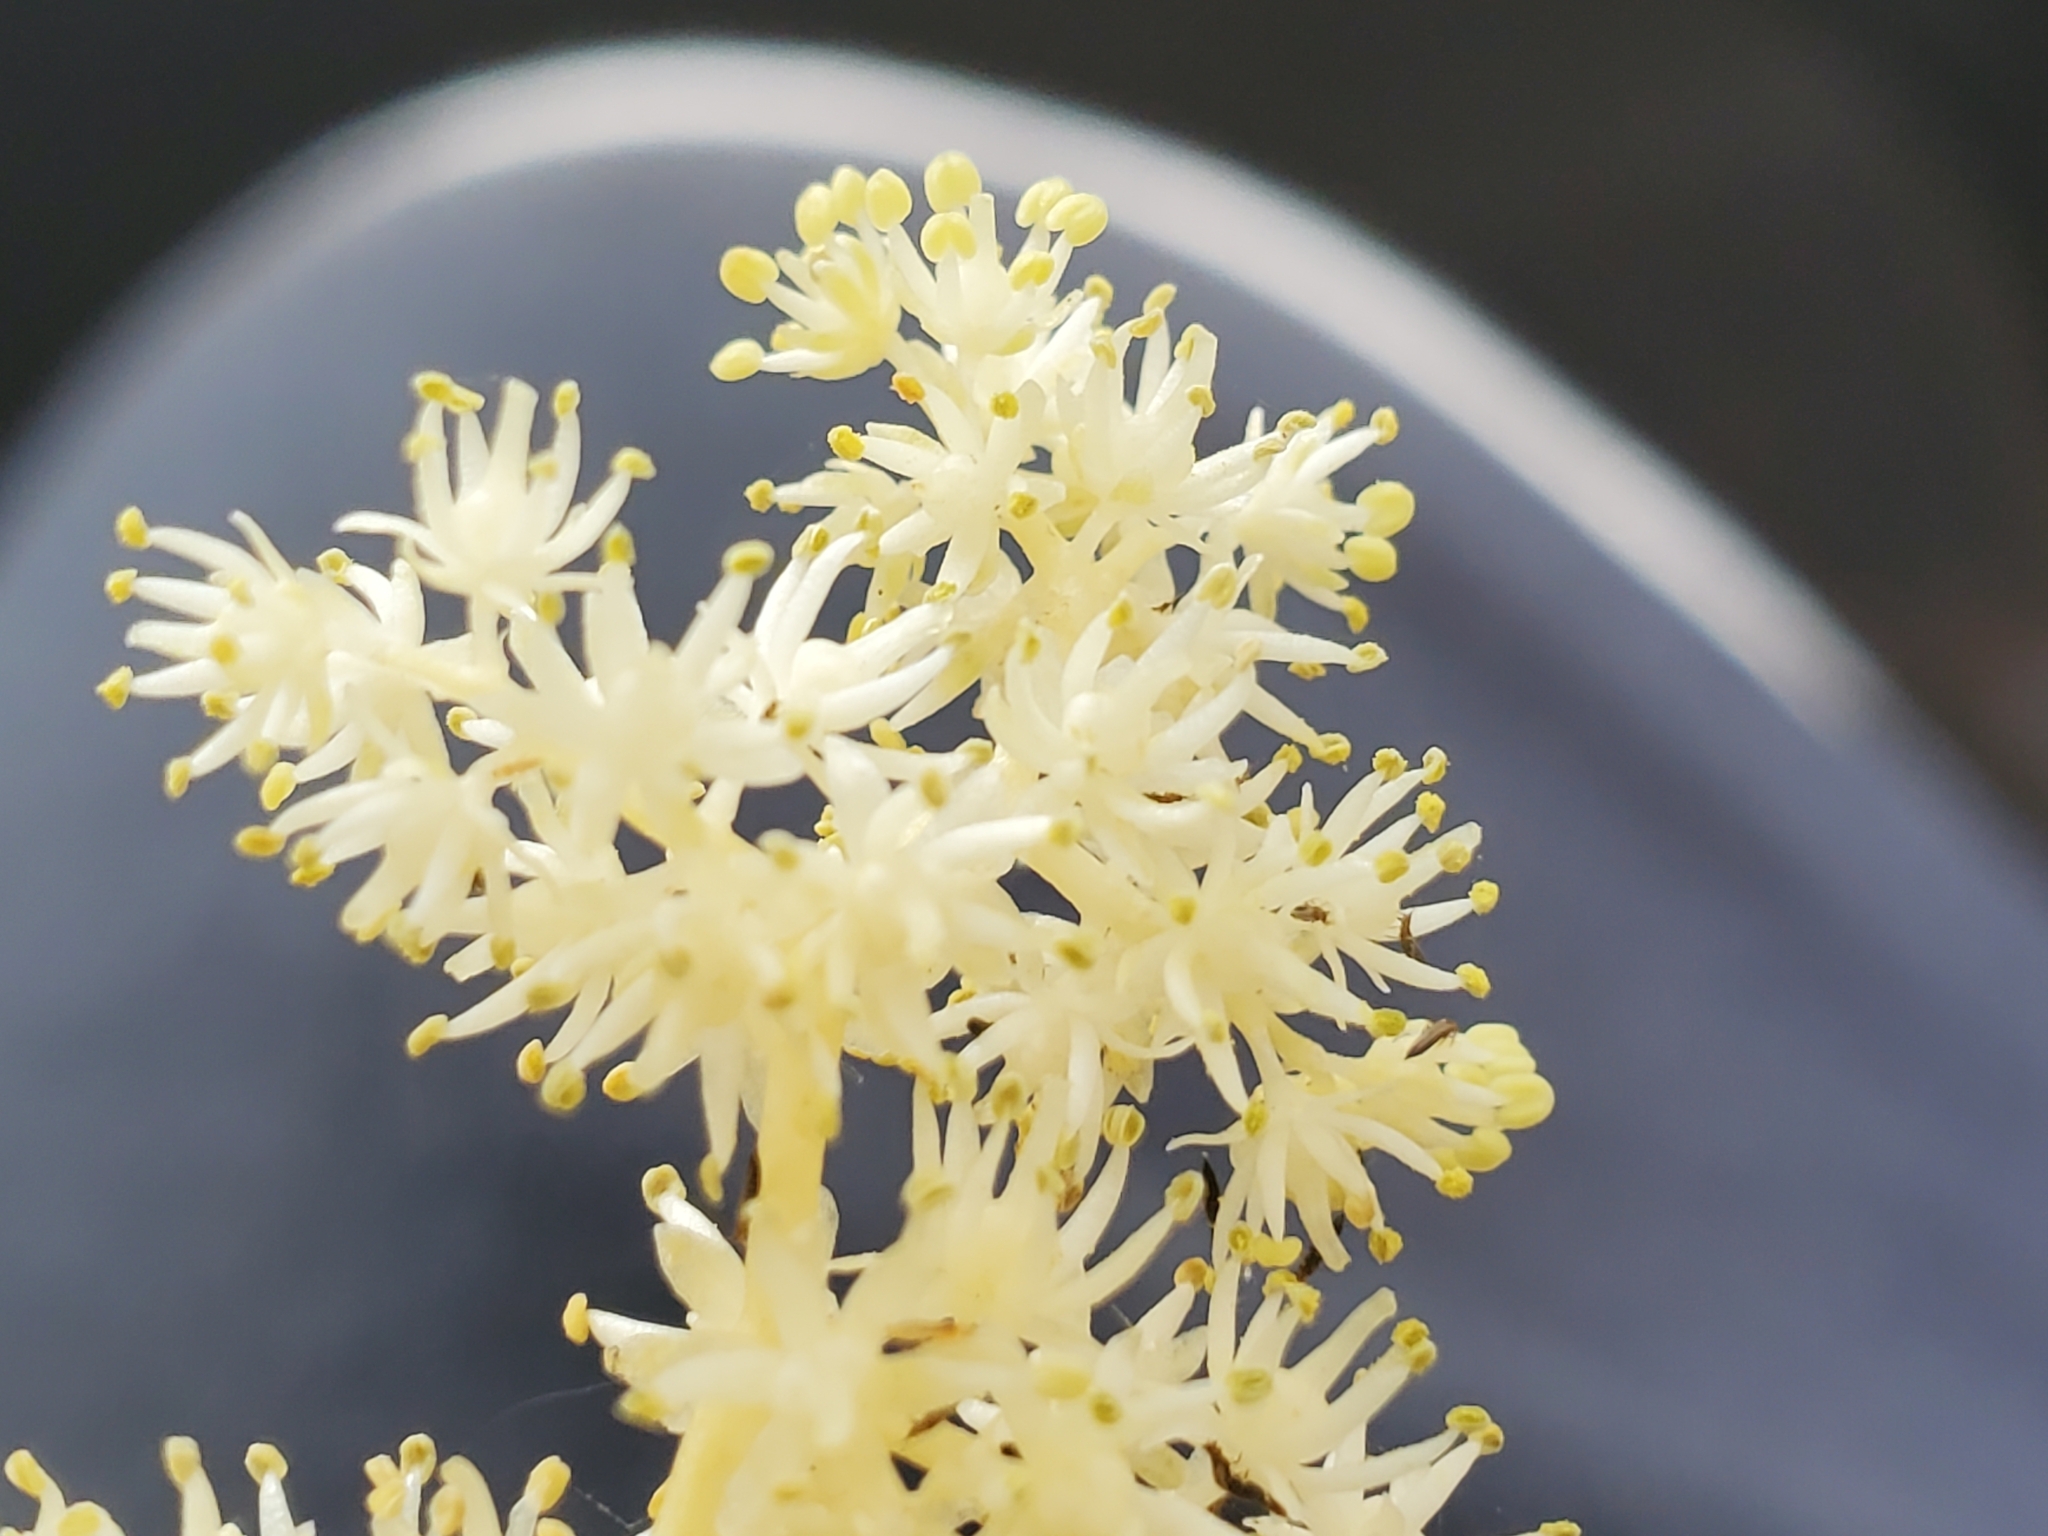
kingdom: Plantae
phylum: Tracheophyta
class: Liliopsida
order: Asparagales
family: Asparagaceae
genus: Maianthemum
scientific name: Maianthemum racemosum
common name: False spikenard
